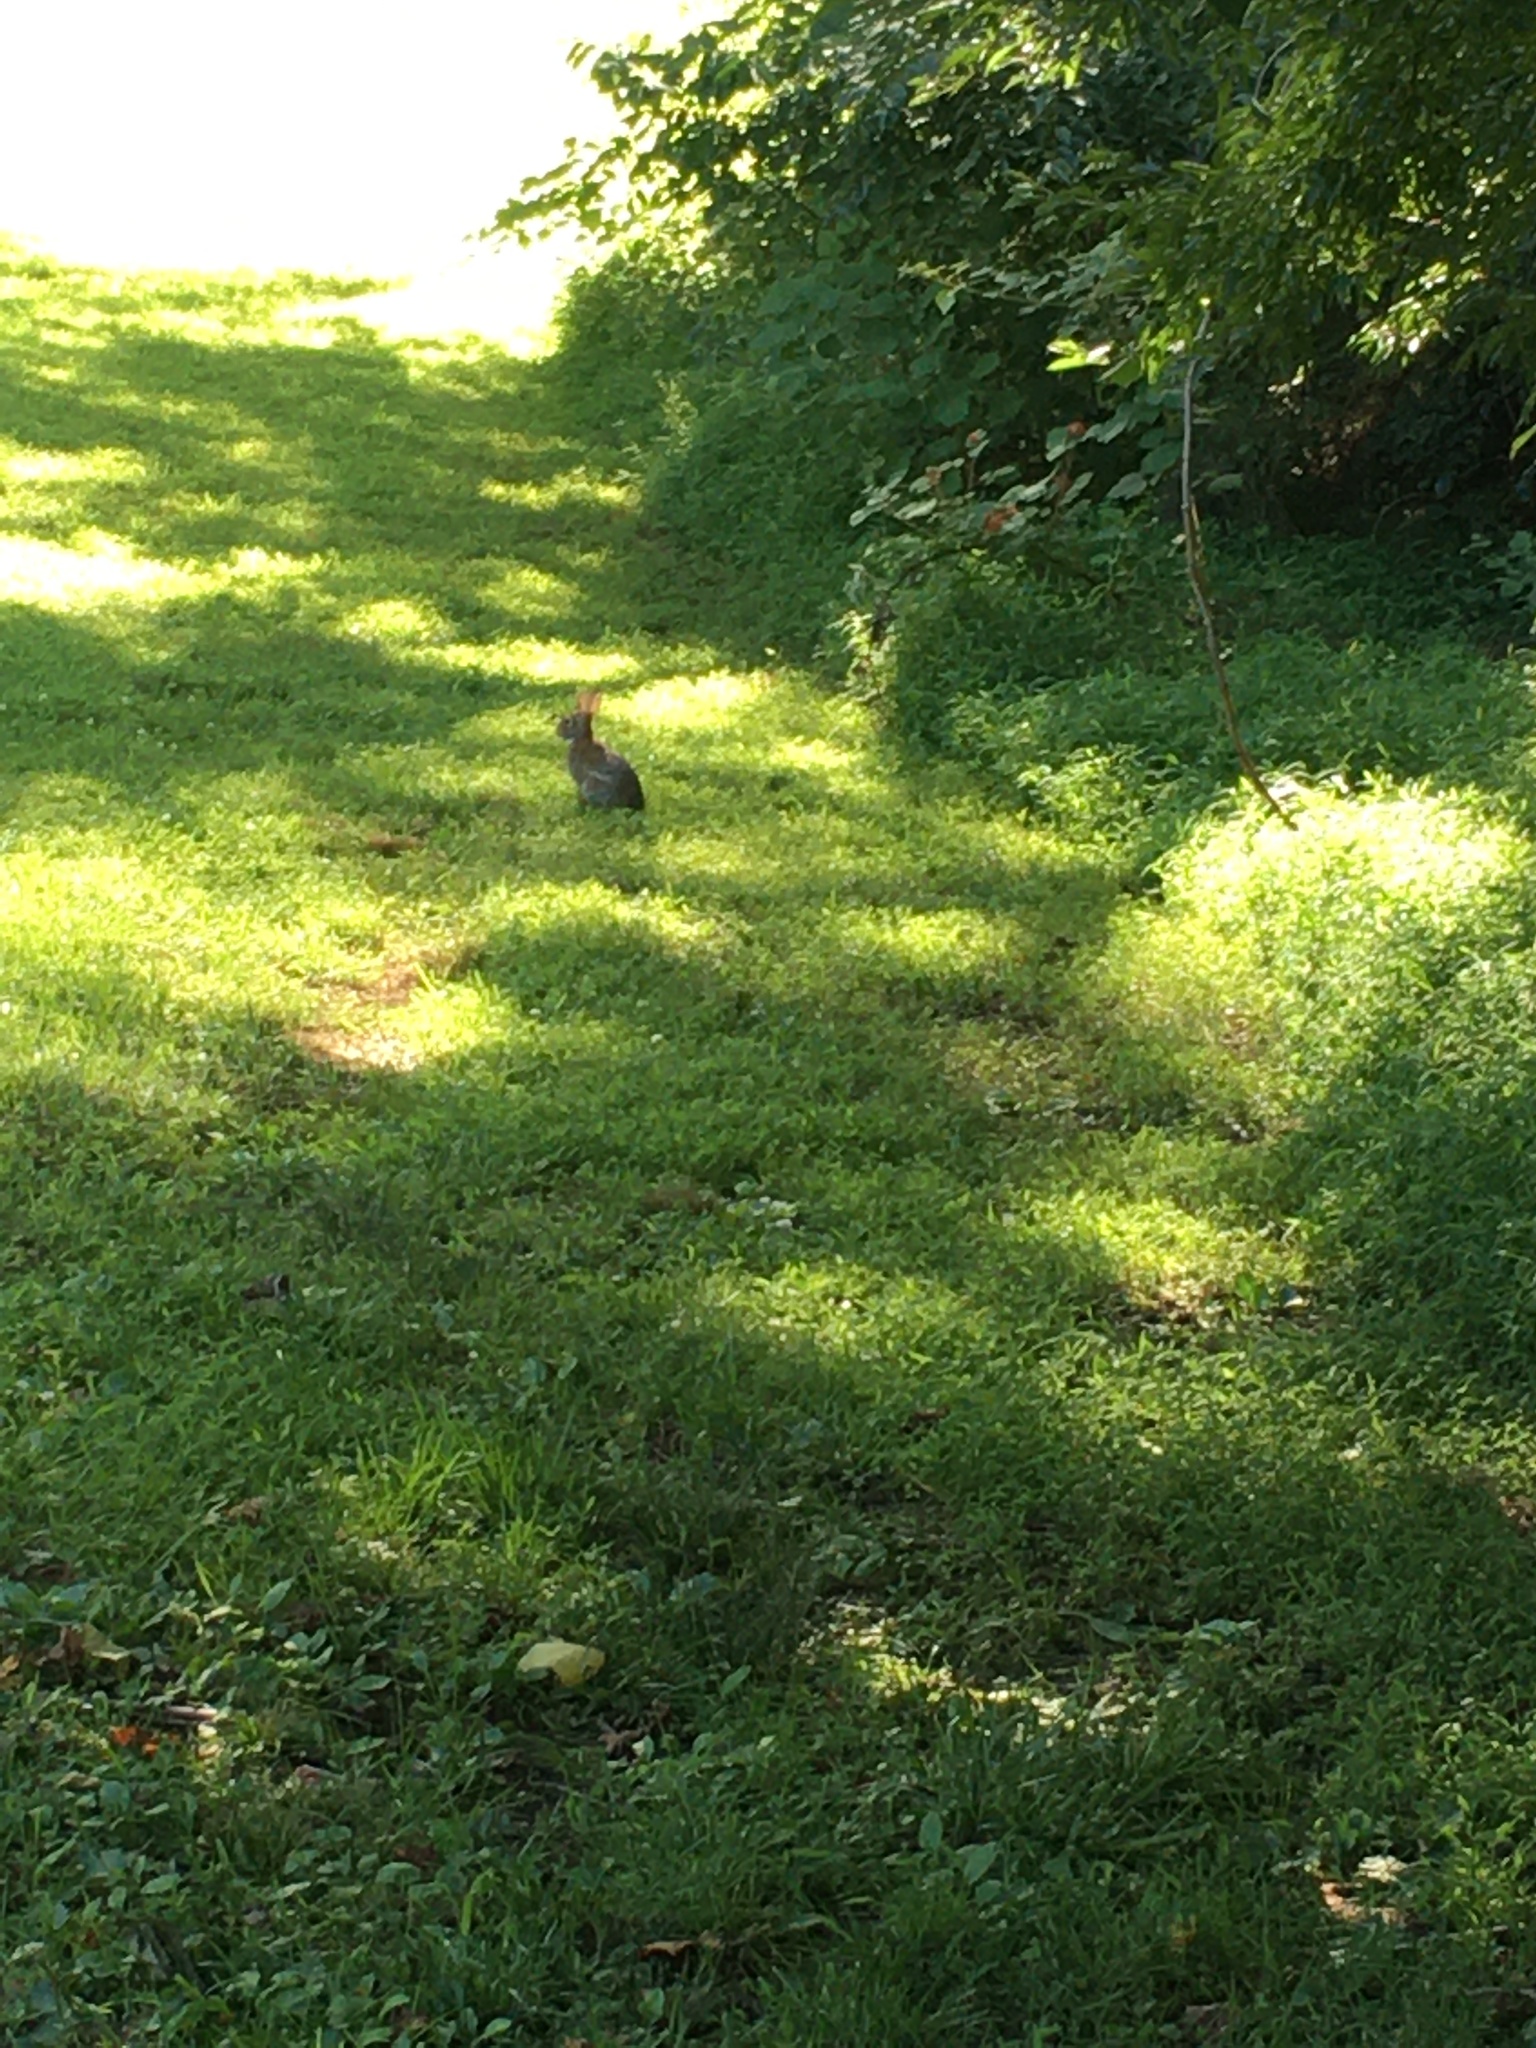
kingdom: Animalia
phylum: Chordata
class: Mammalia
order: Lagomorpha
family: Leporidae
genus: Sylvilagus
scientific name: Sylvilagus floridanus
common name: Eastern cottontail
